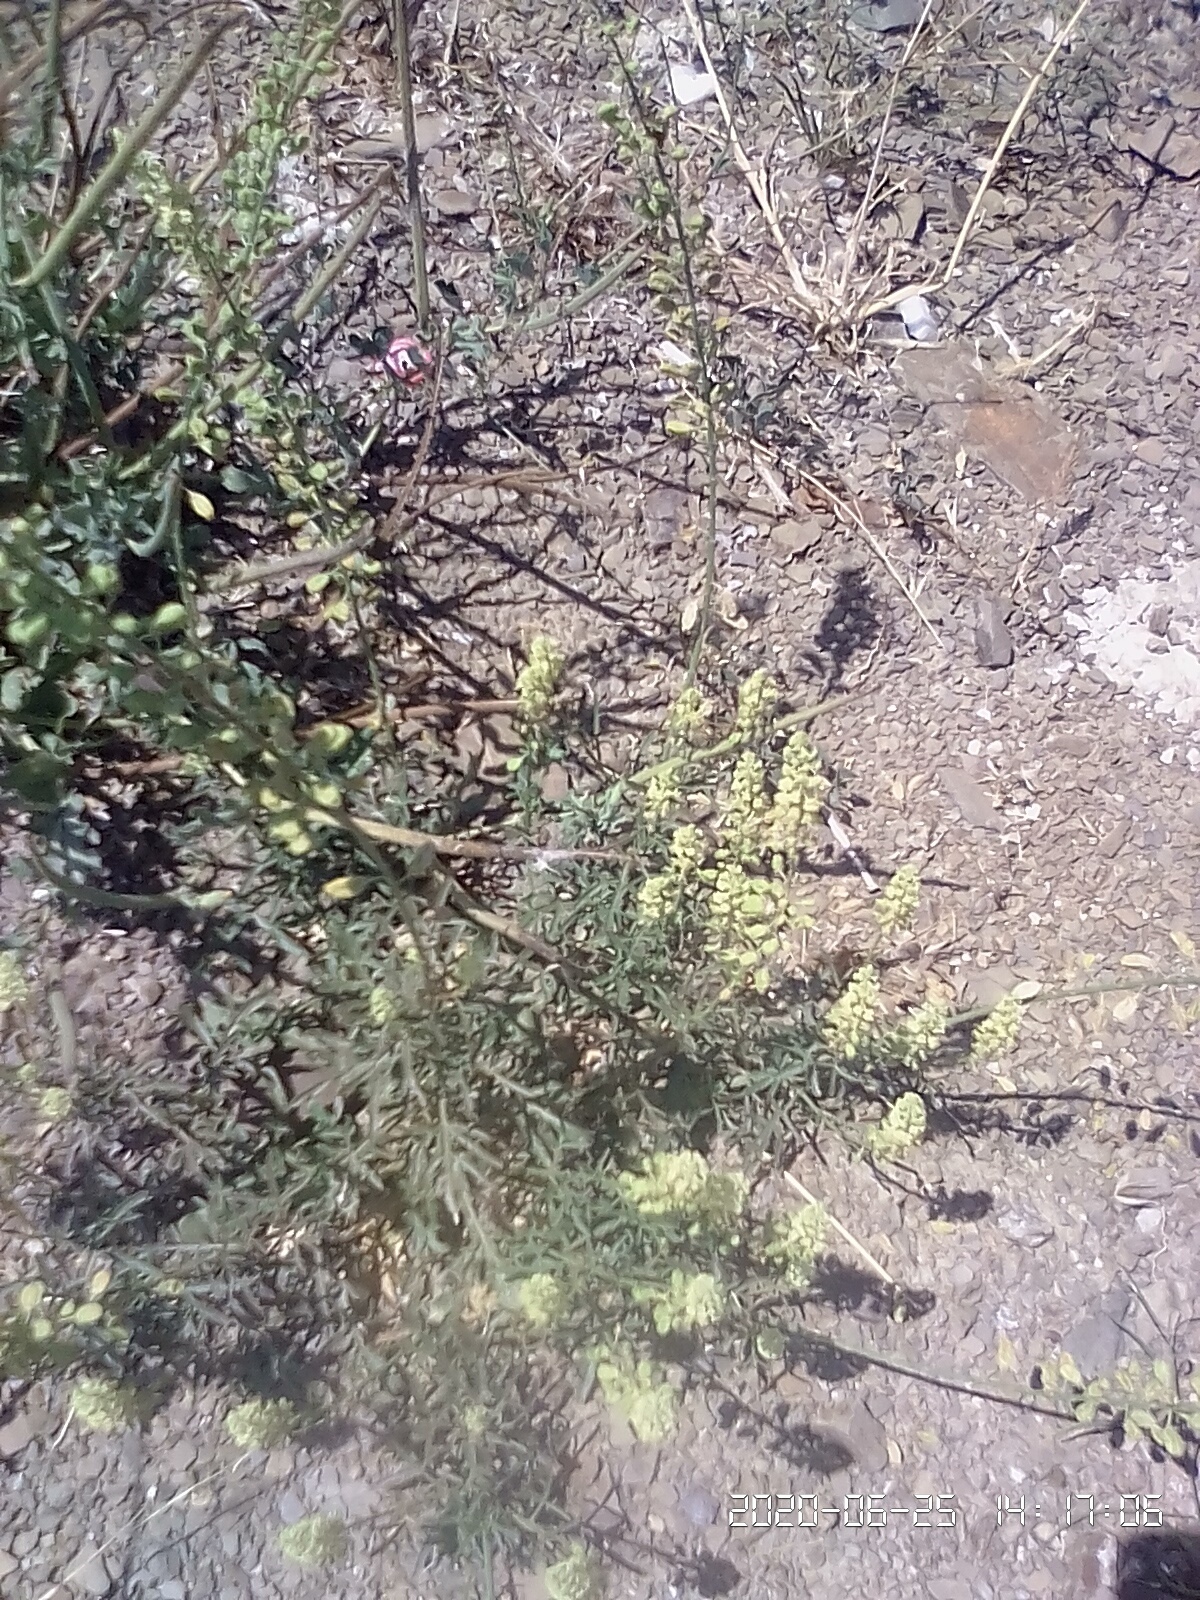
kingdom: Plantae
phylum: Tracheophyta
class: Magnoliopsida
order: Brassicales
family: Resedaceae
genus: Reseda
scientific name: Reseda lutea
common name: Wild mignonette
